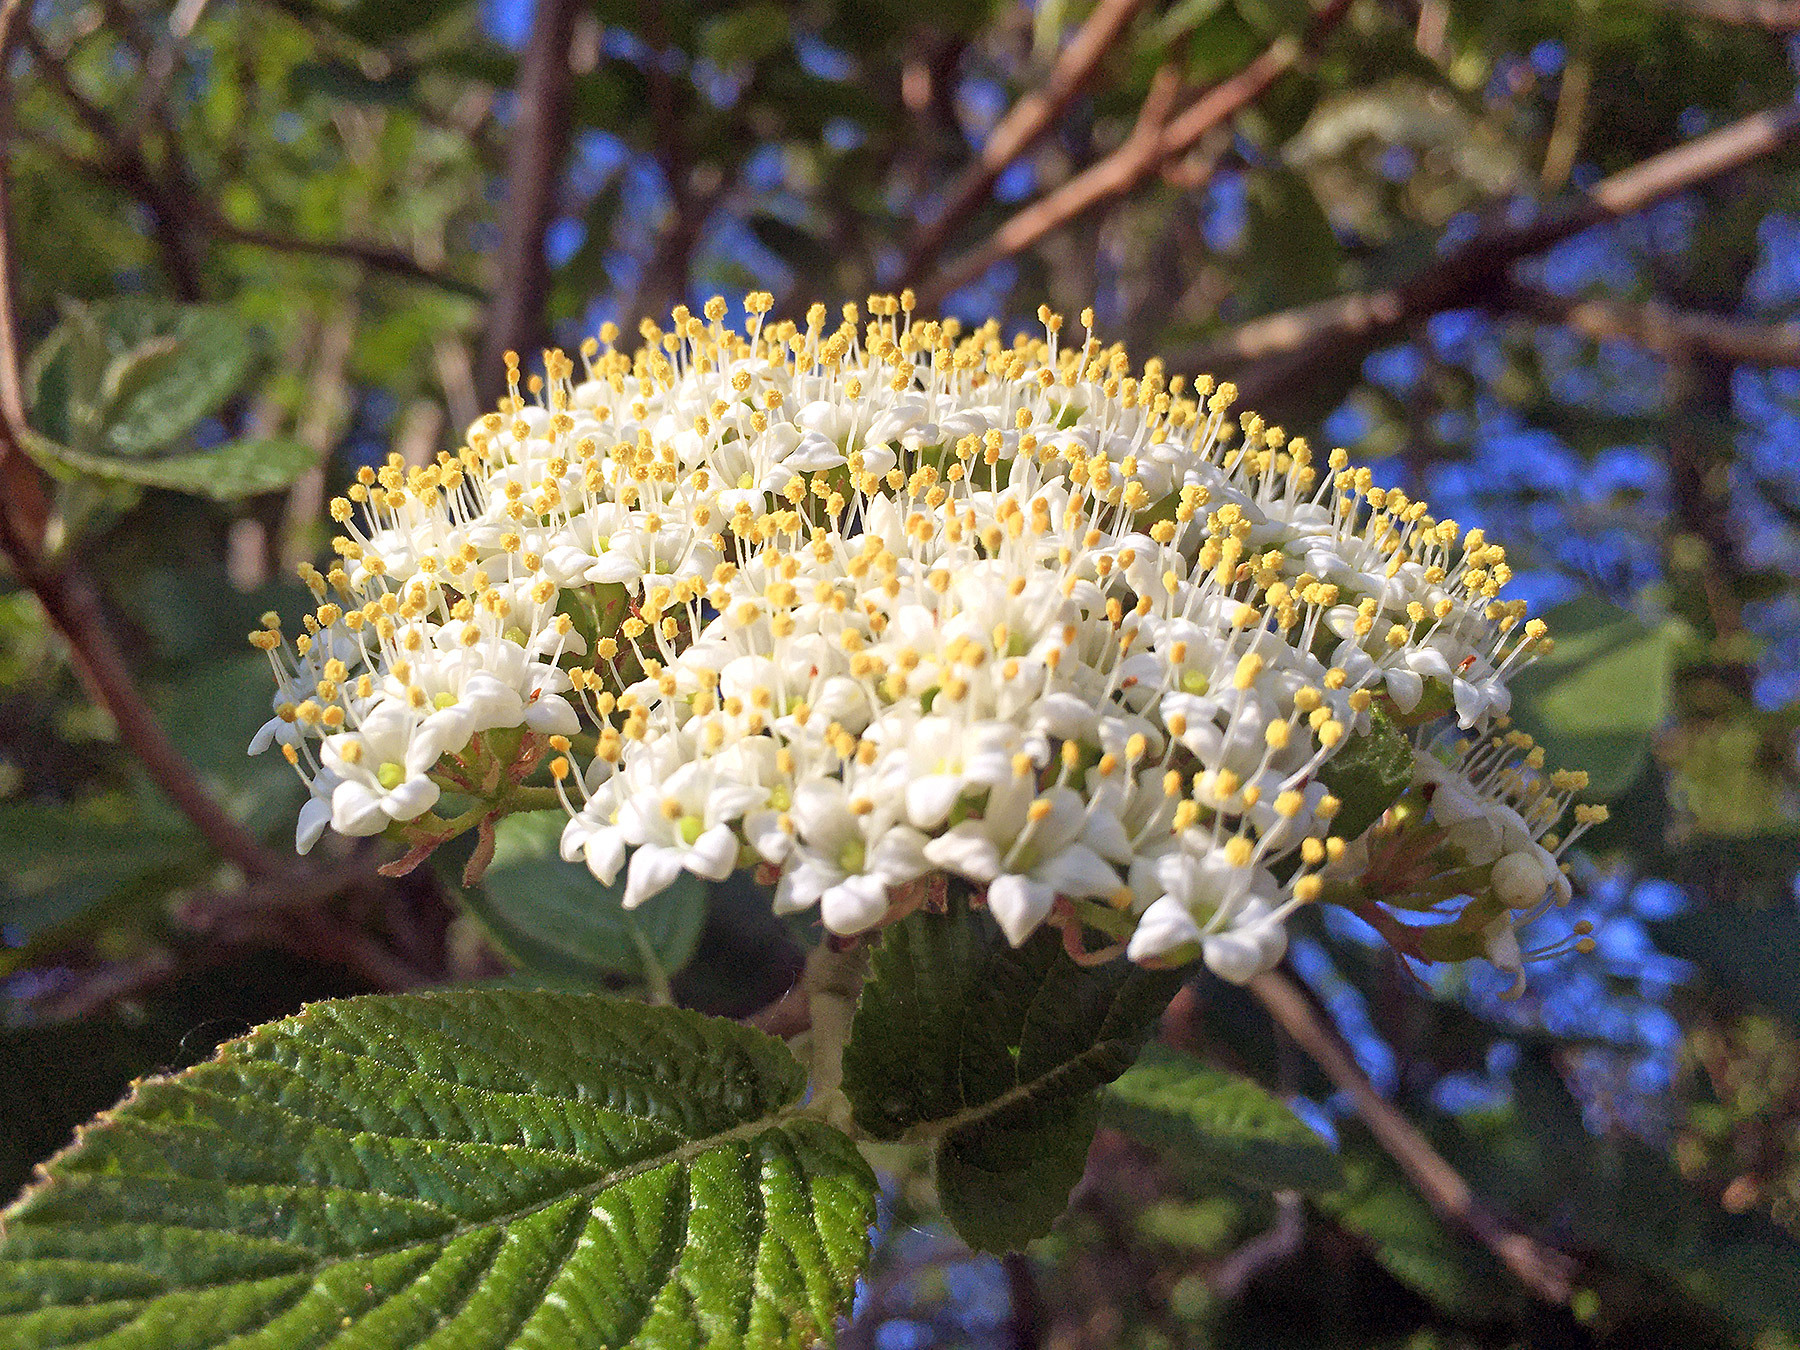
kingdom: Plantae
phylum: Tracheophyta
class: Magnoliopsida
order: Dipsacales
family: Viburnaceae
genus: Viburnum
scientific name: Viburnum lantana
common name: Wayfaring tree
